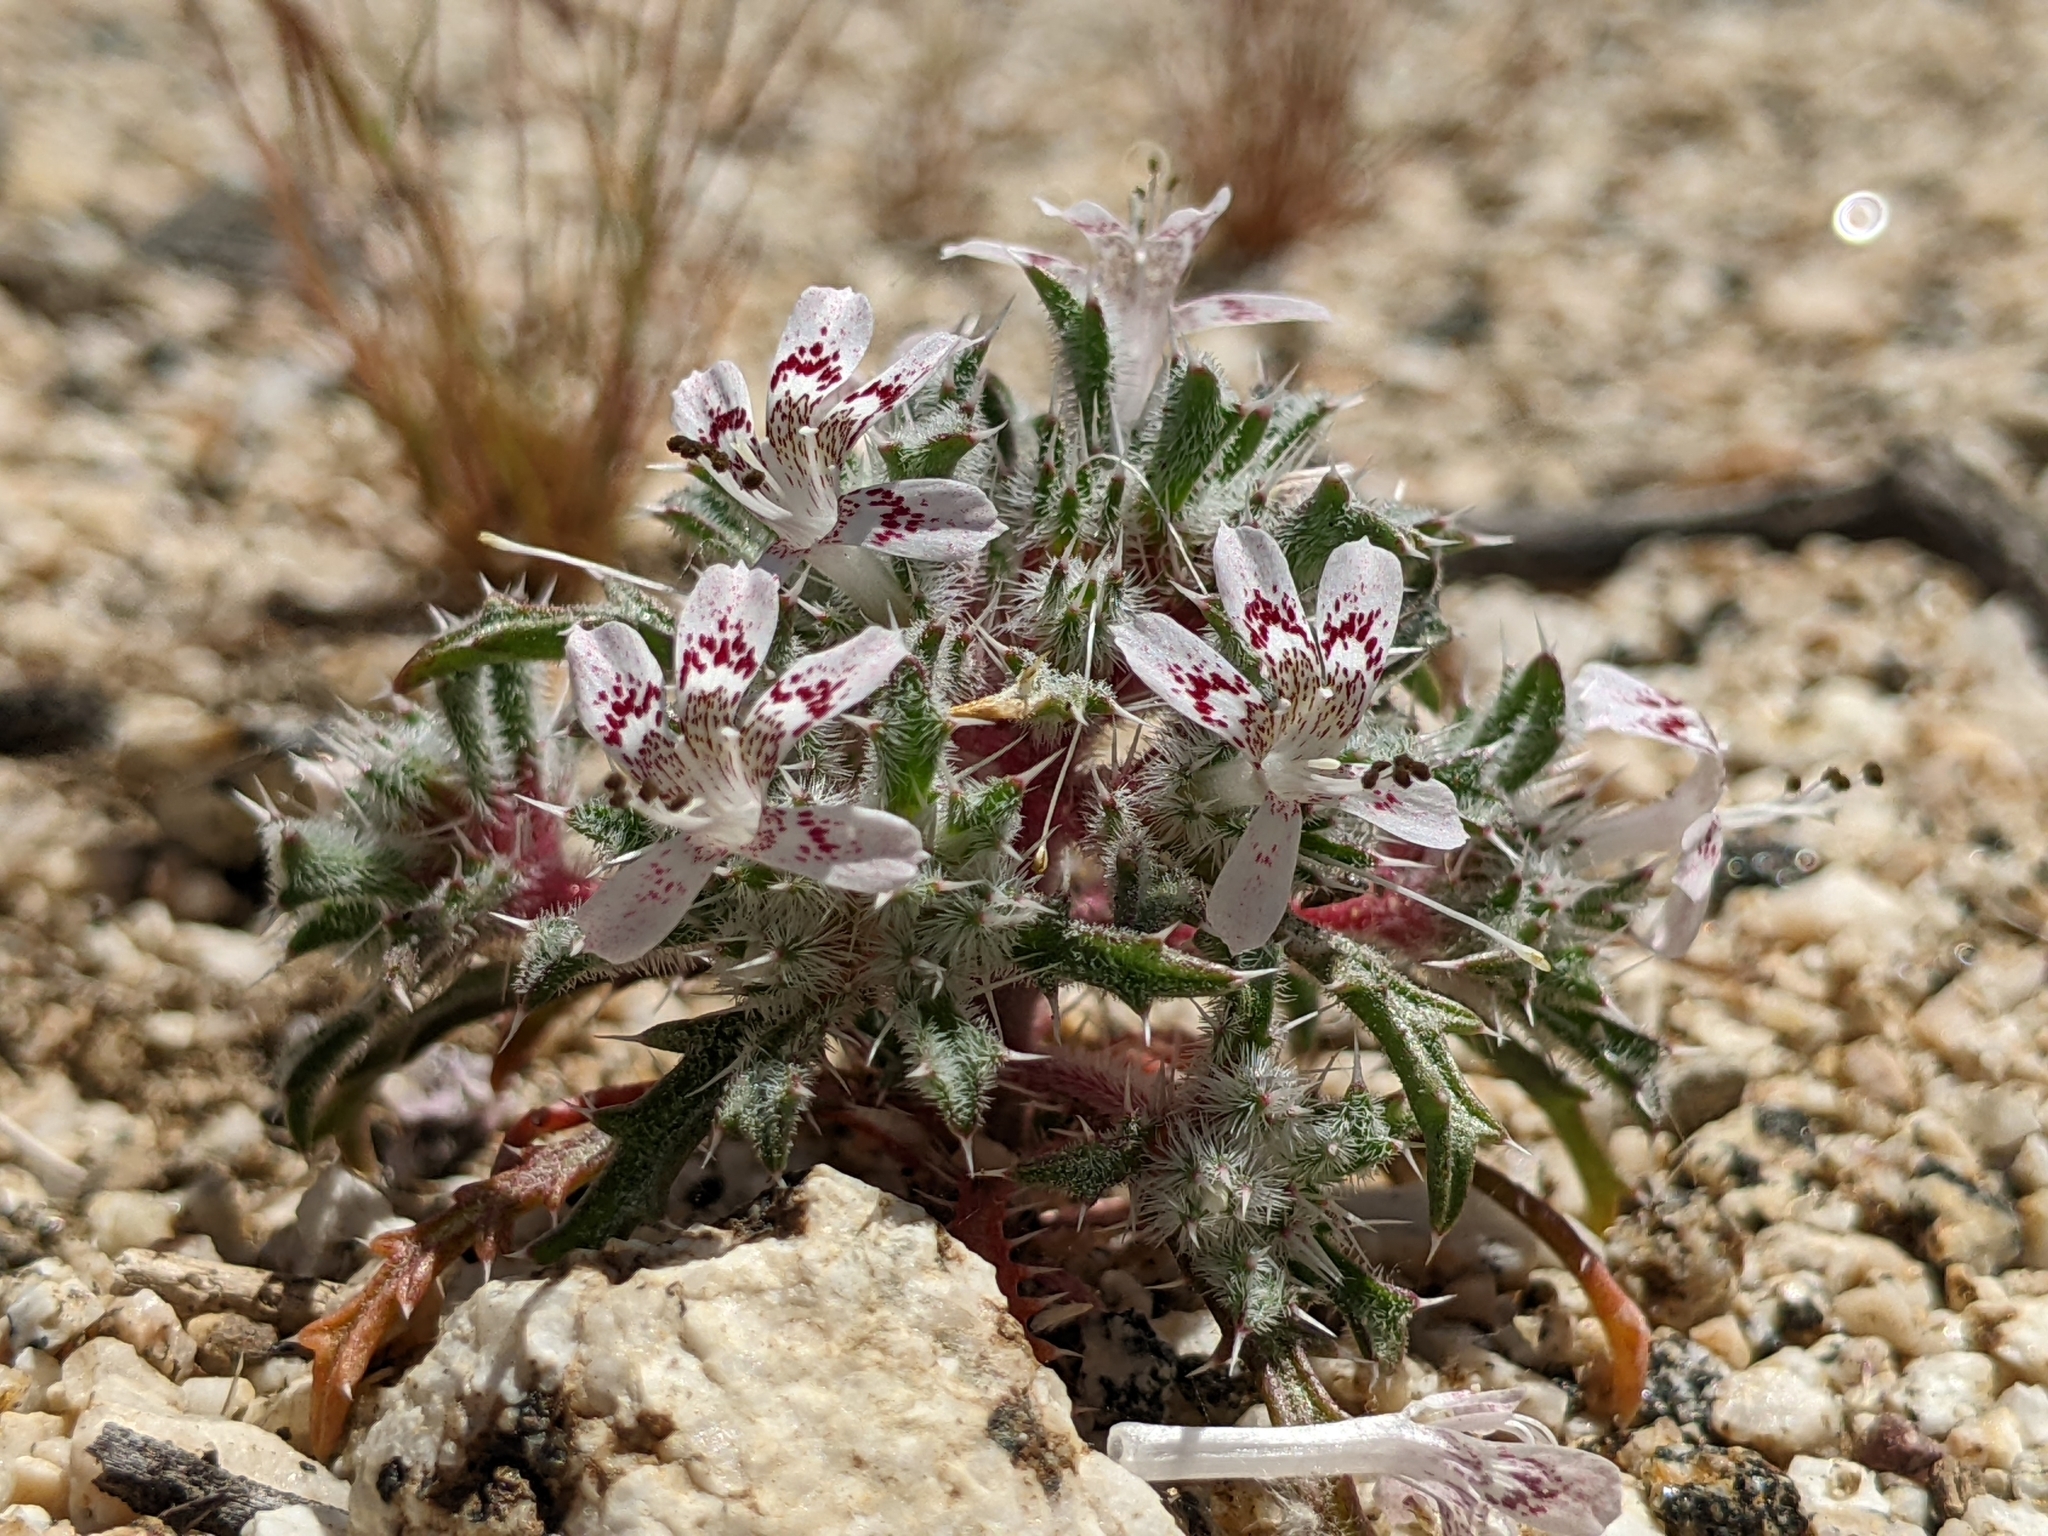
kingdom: Plantae
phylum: Tracheophyta
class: Magnoliopsida
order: Ericales
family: Polemoniaceae
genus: Loeseliastrum
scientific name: Loeseliastrum matthewsii
